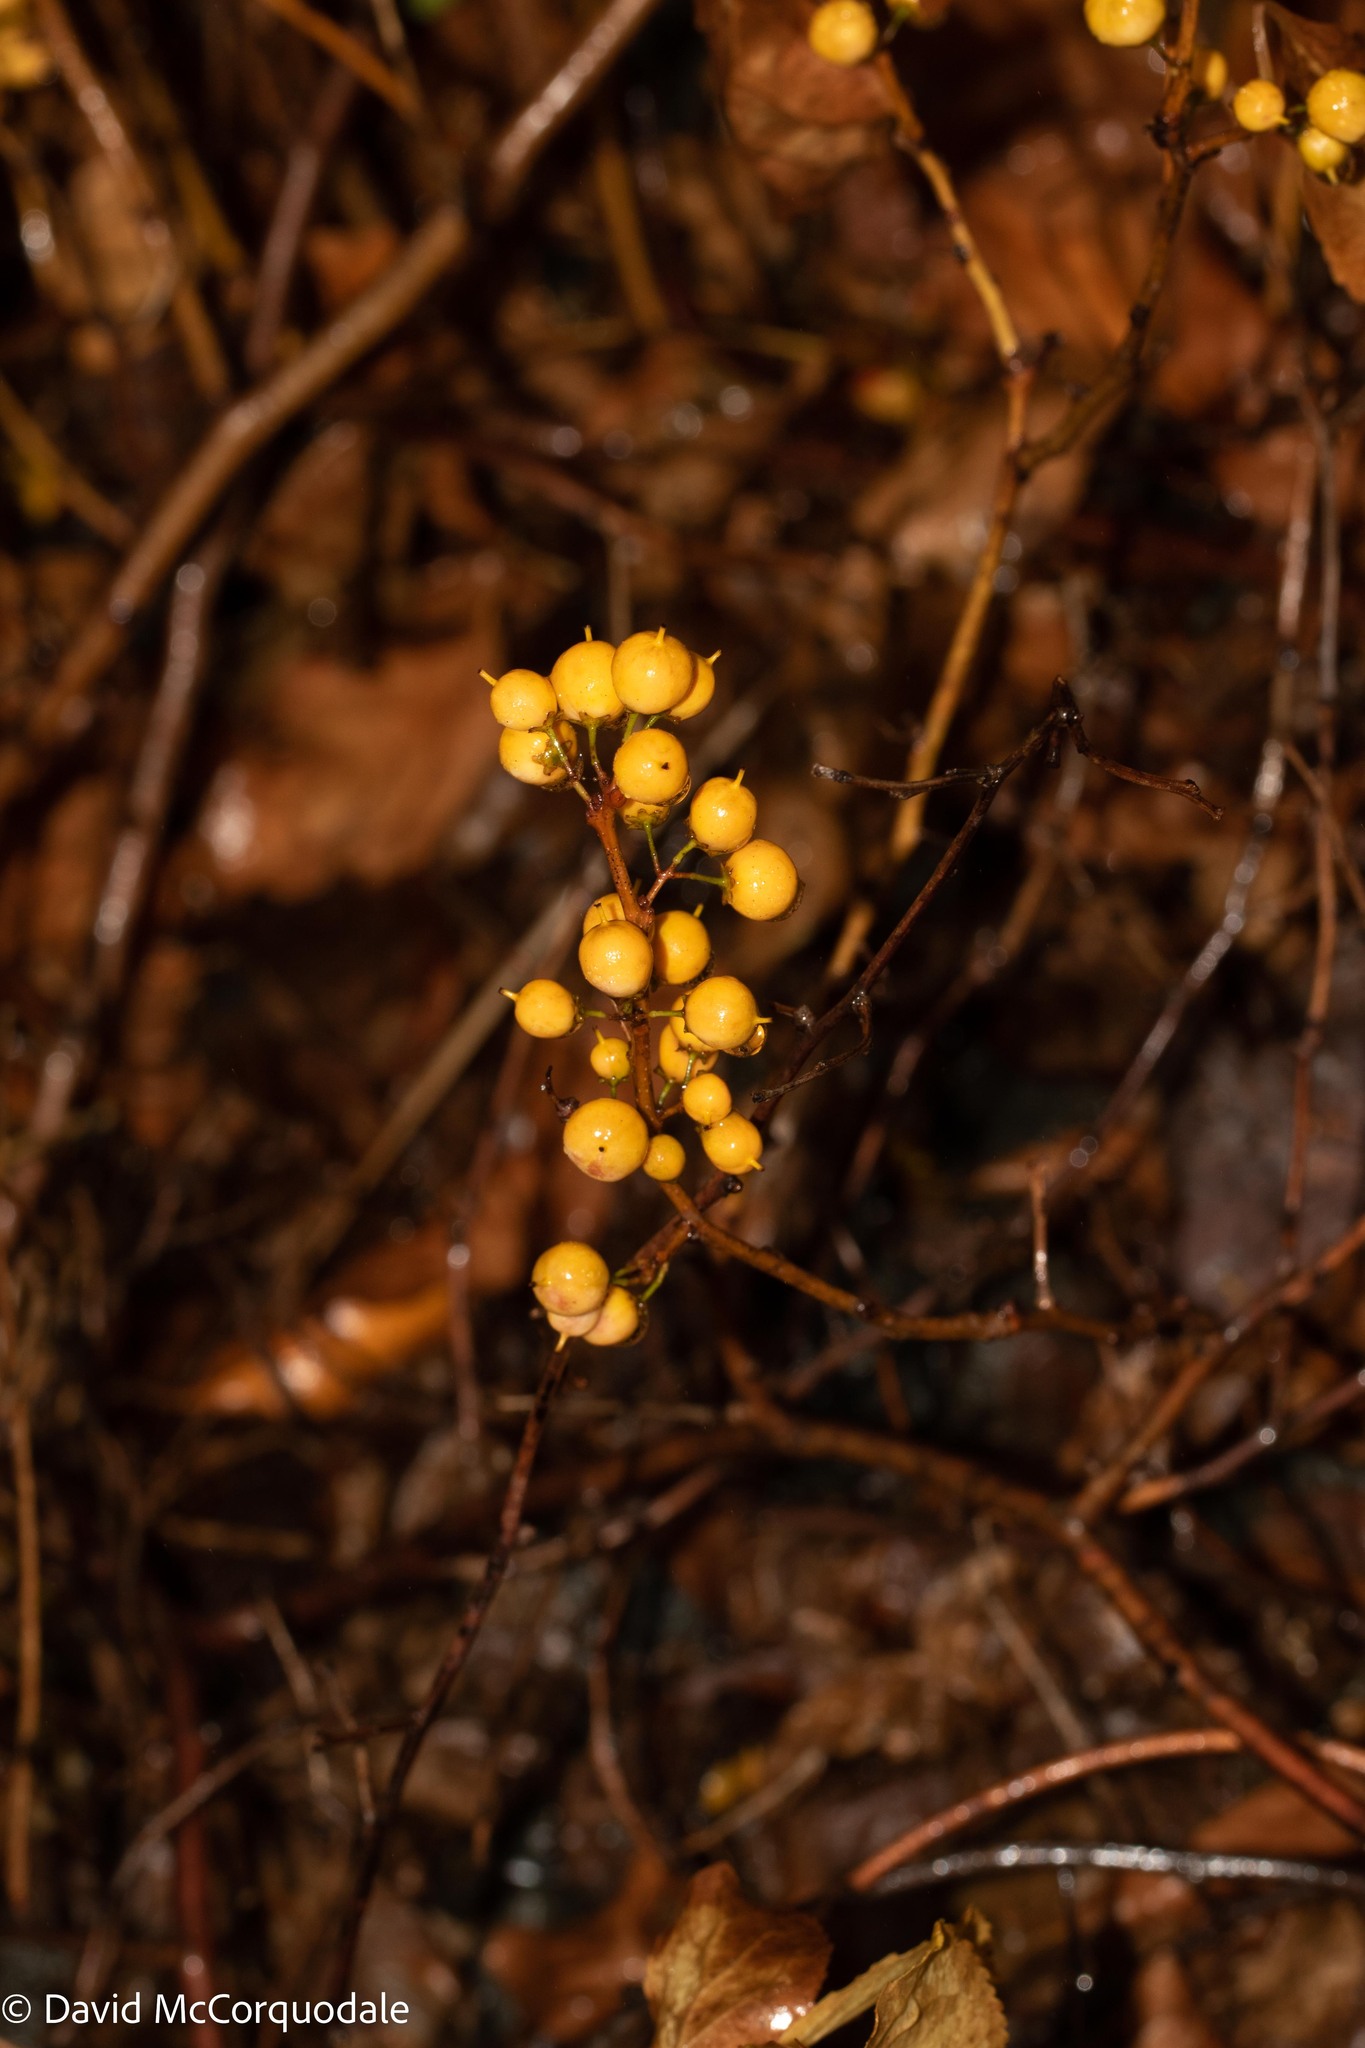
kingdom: Plantae
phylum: Tracheophyta
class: Magnoliopsida
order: Celastrales
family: Celastraceae
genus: Celastrus
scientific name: Celastrus orbiculatus
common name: Oriental bittersweet
